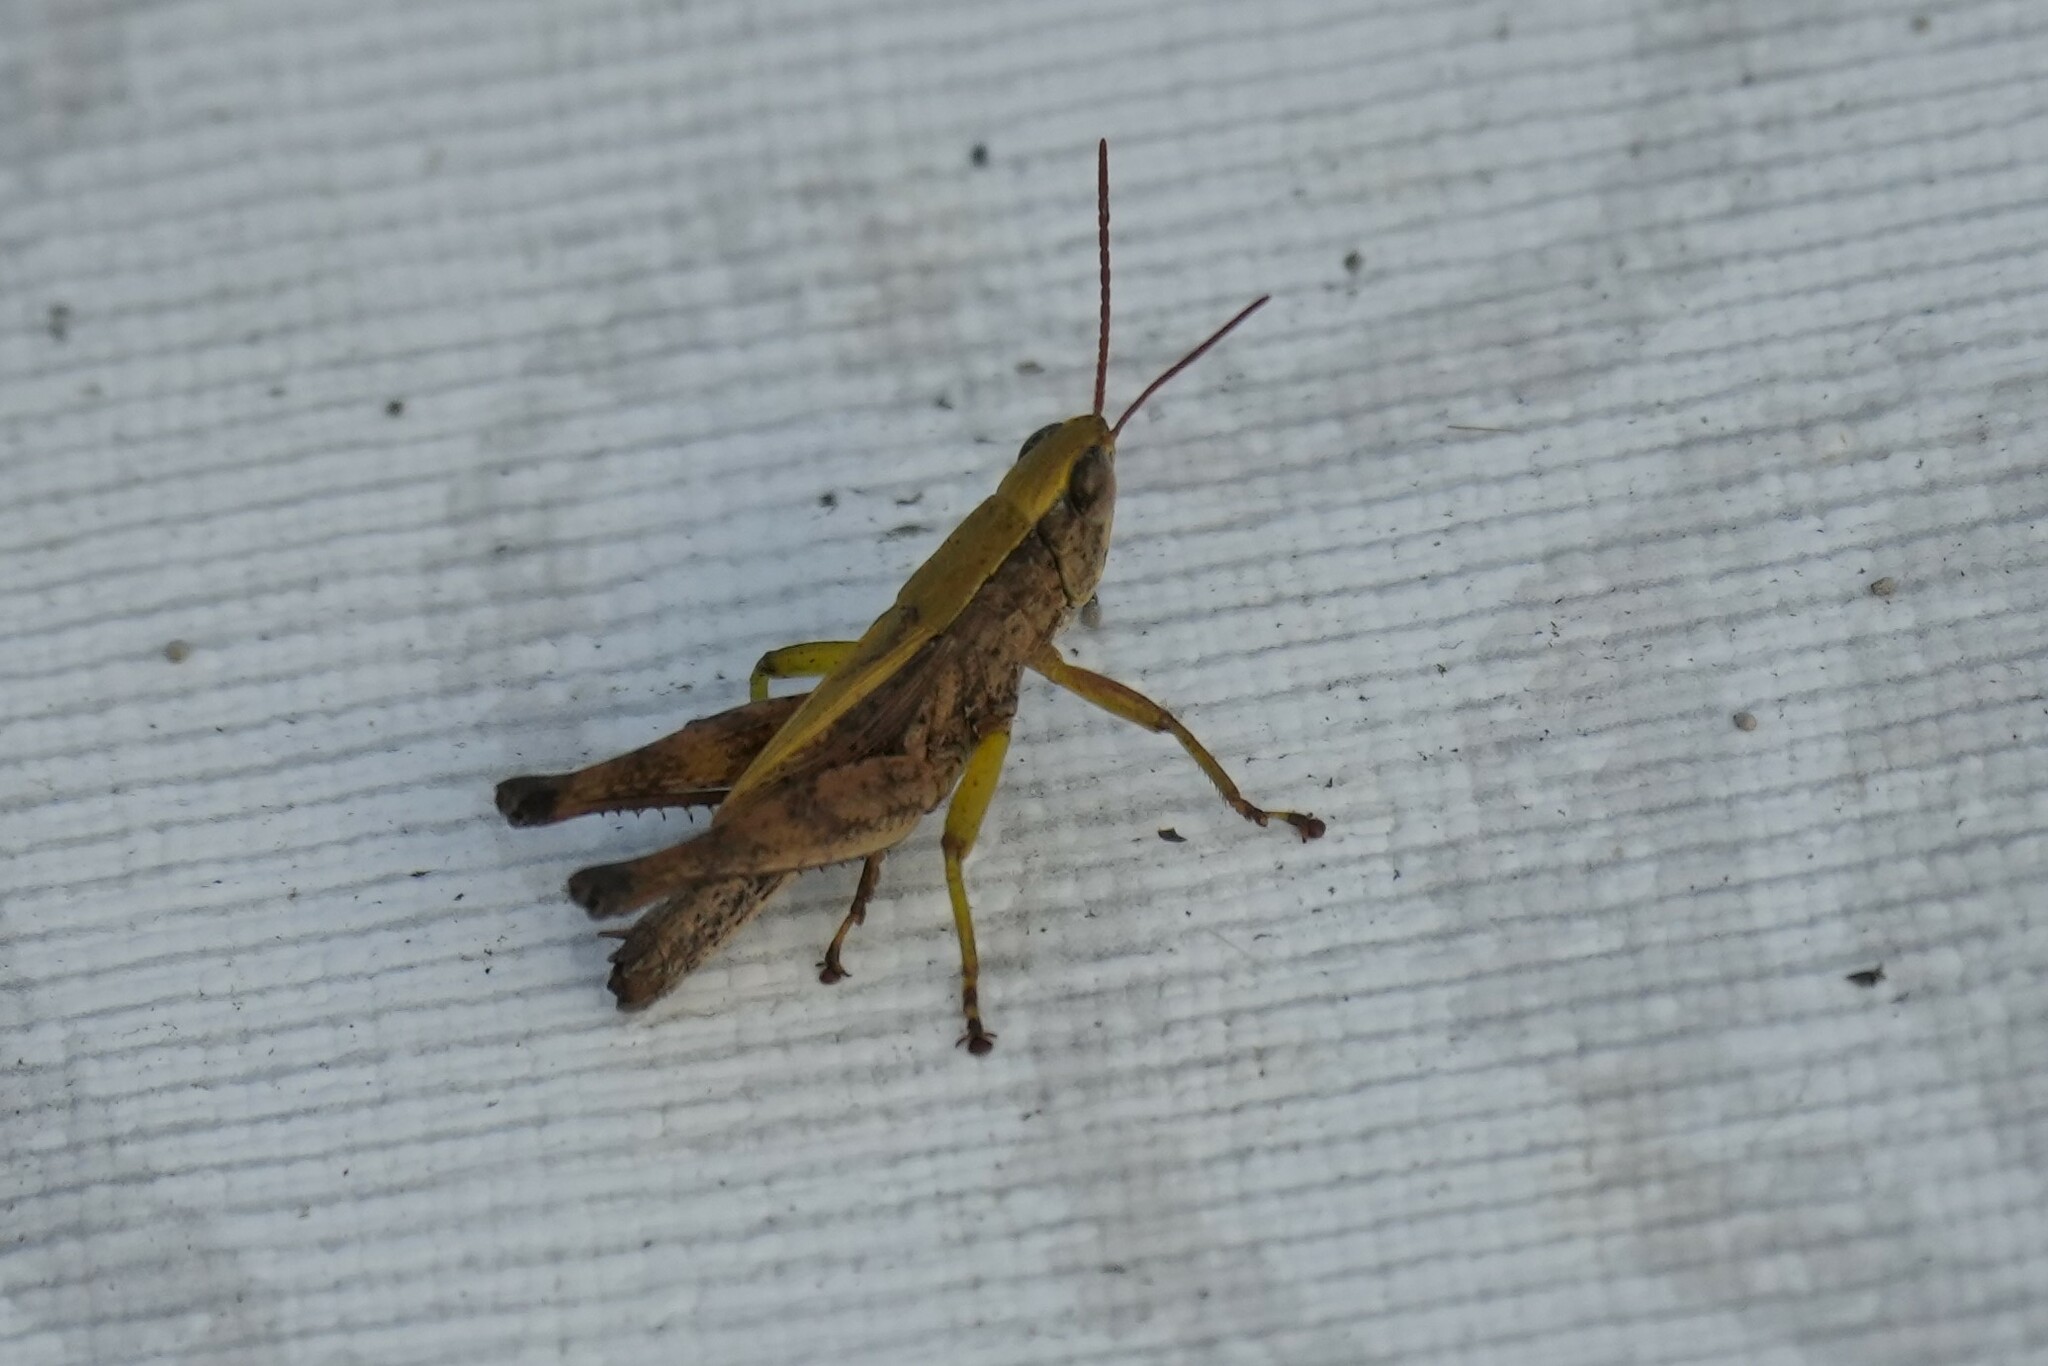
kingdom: Animalia
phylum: Arthropoda
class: Insecta
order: Orthoptera
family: Acrididae
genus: Dichromorpha
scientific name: Dichromorpha viridis
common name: Short-winged green grasshopper
